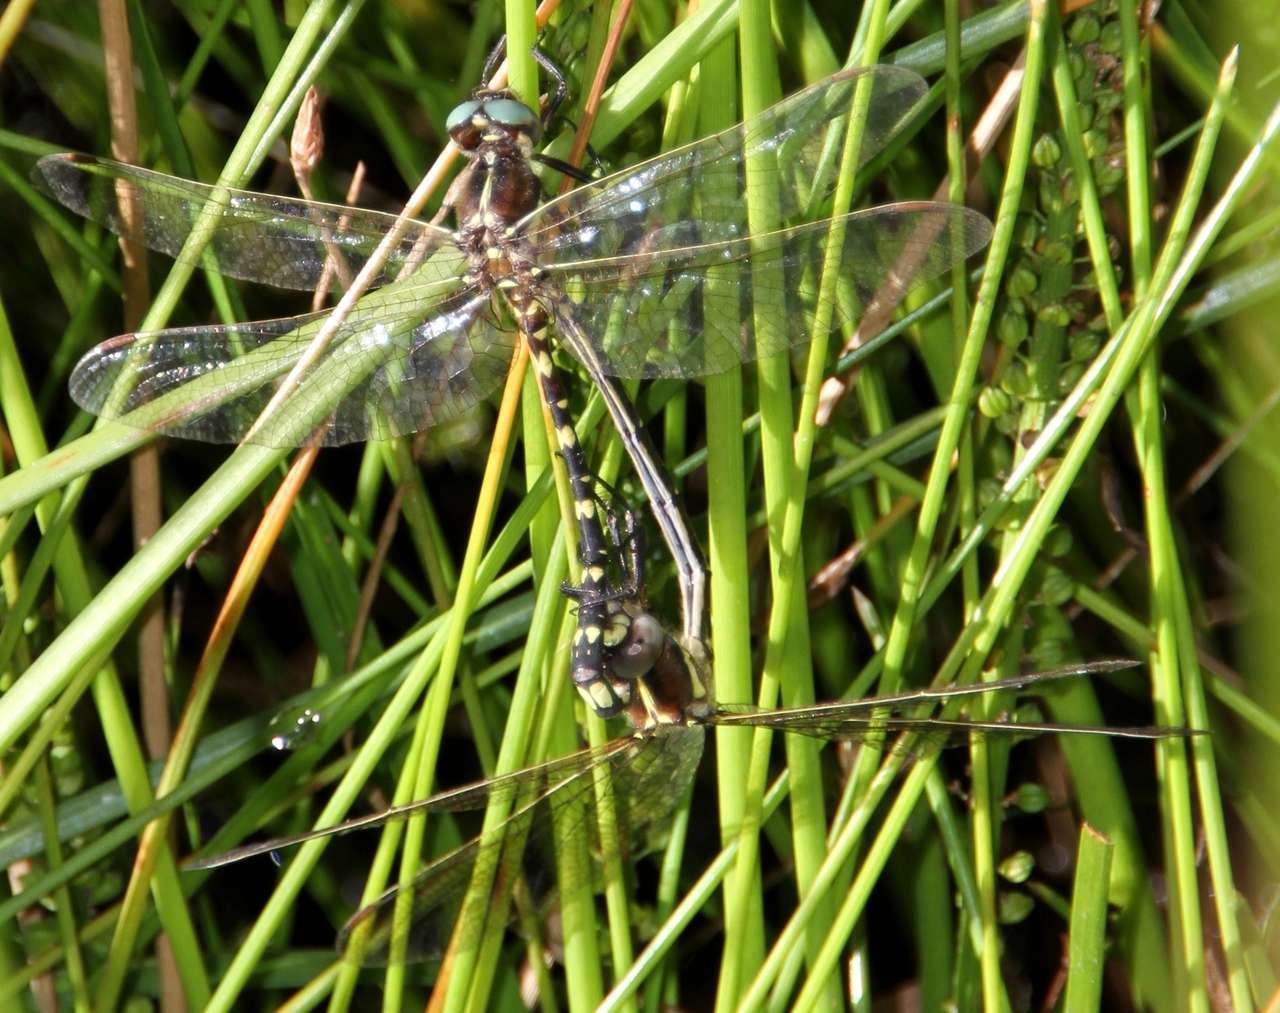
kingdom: Animalia
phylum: Arthropoda
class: Insecta
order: Odonata
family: Synthemistidae
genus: Synthemis
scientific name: Synthemis eustalacta
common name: Swamp tigertail
